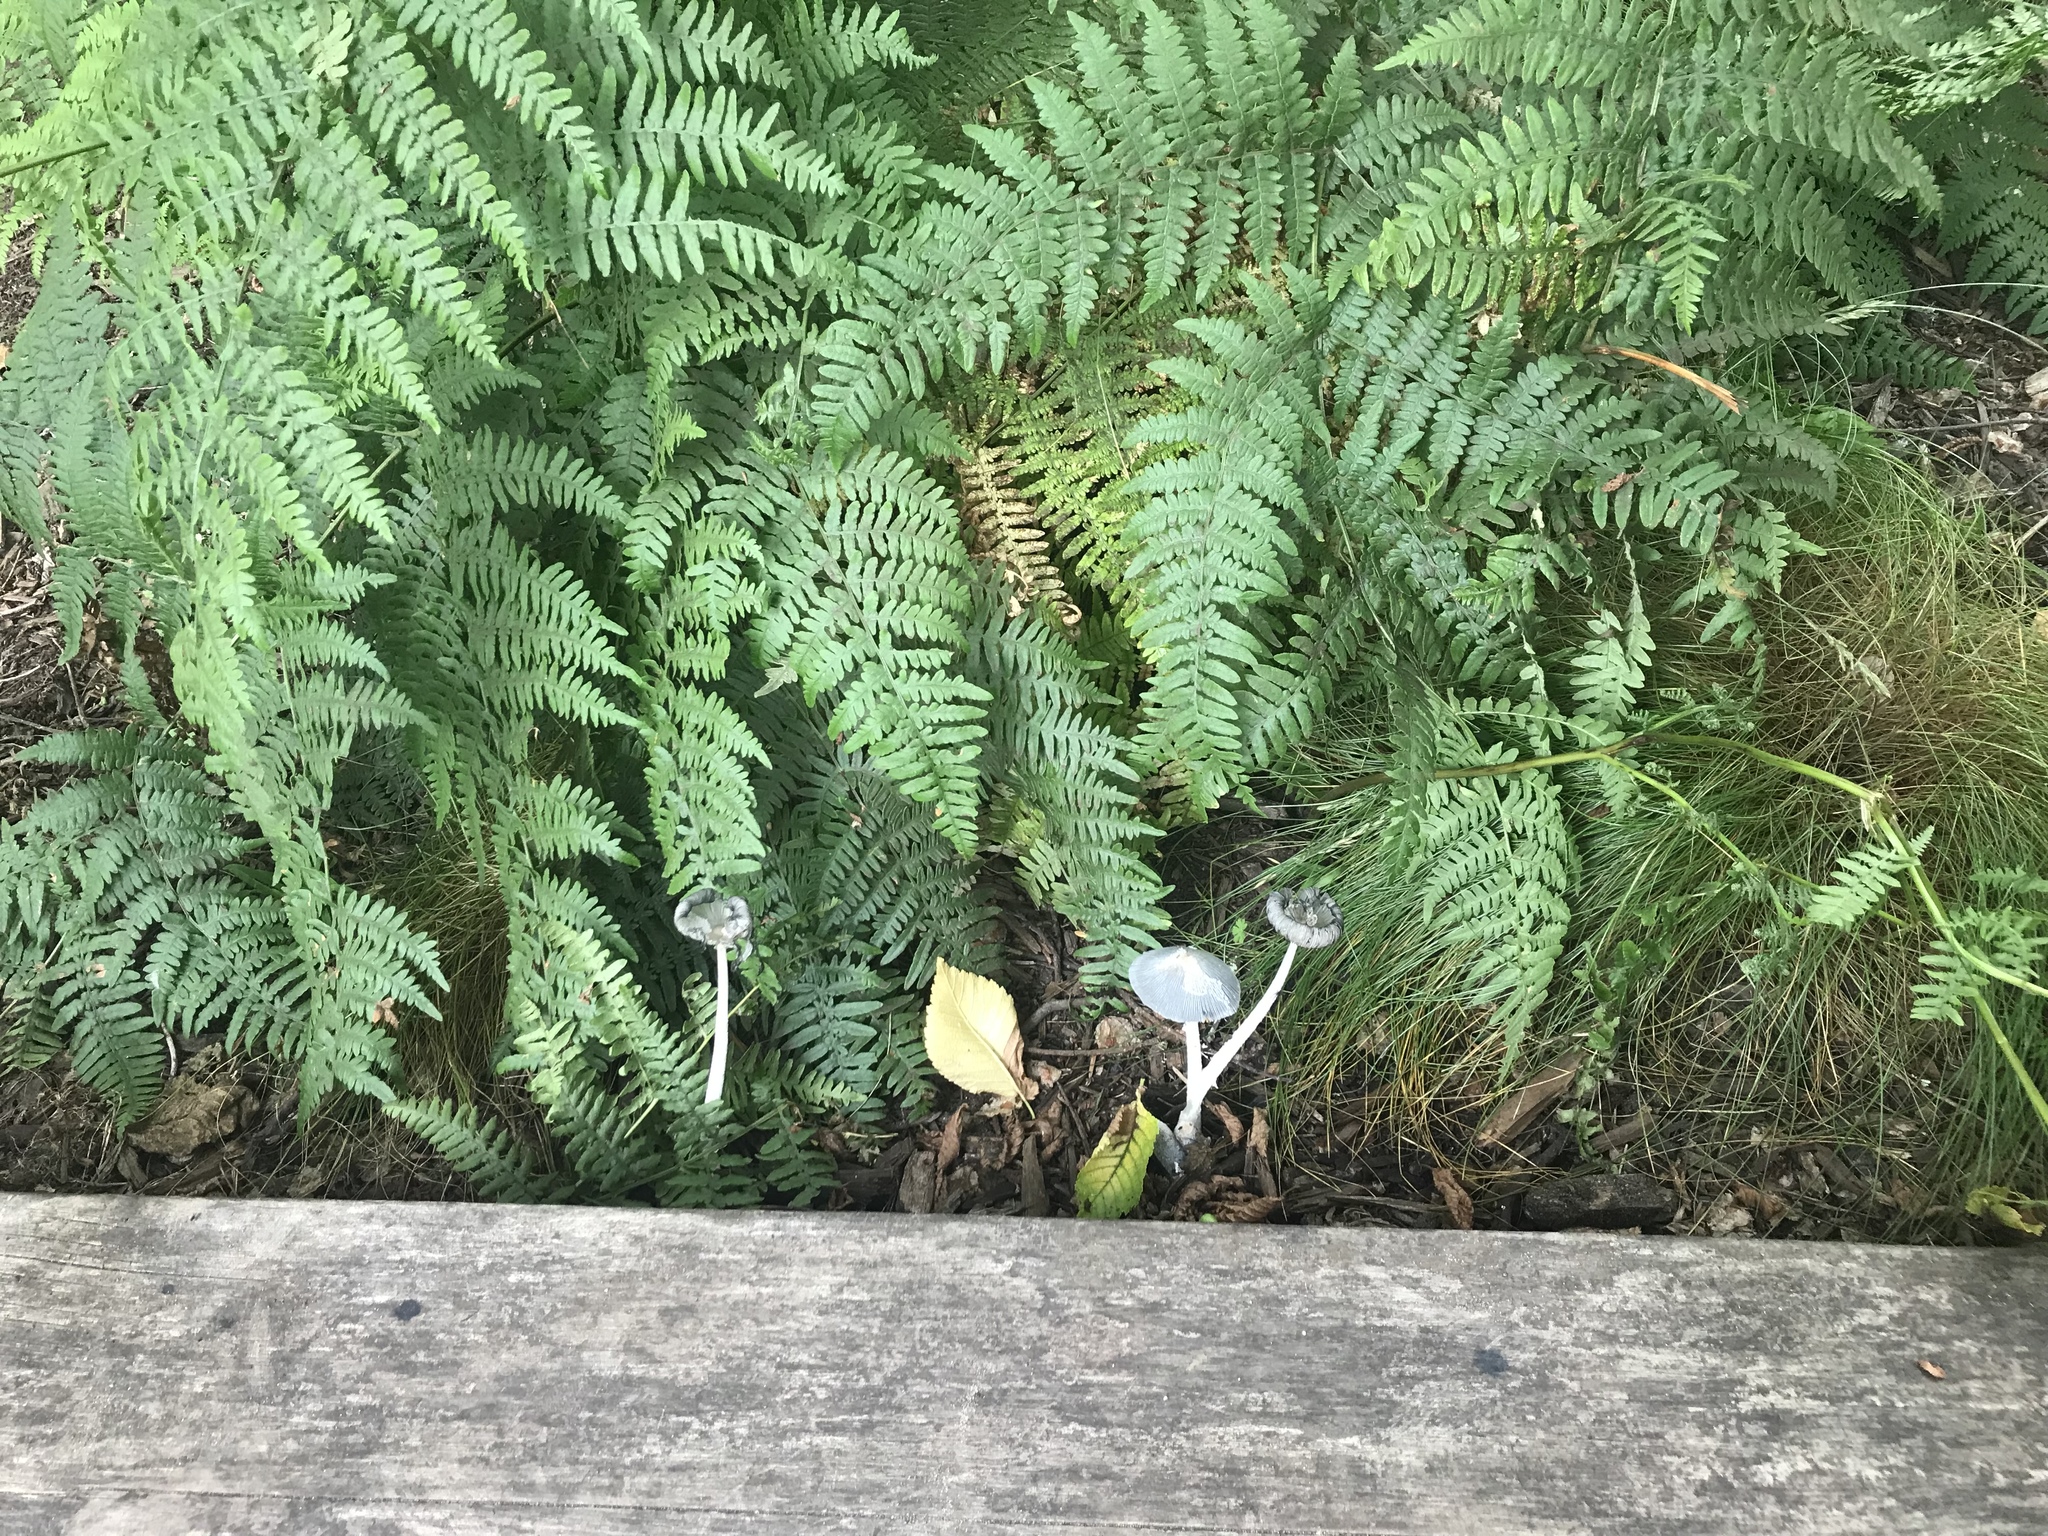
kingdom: Fungi
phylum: Basidiomycota
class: Agaricomycetes
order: Agaricales
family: Psathyrellaceae
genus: Coprinopsis
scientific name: Coprinopsis lagopus
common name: Hare'sfoot inkcap
